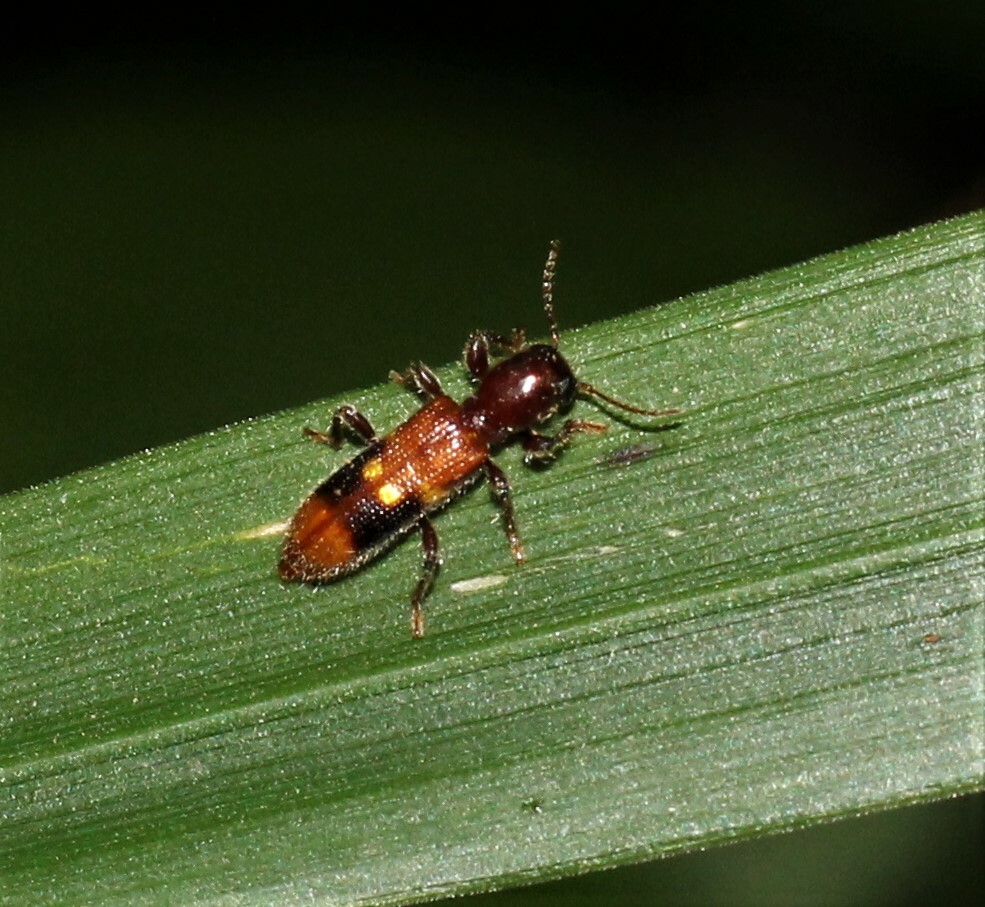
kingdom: Animalia
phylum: Arthropoda
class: Insecta
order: Coleoptera
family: Cleridae
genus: Priocera
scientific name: Priocera castanea
